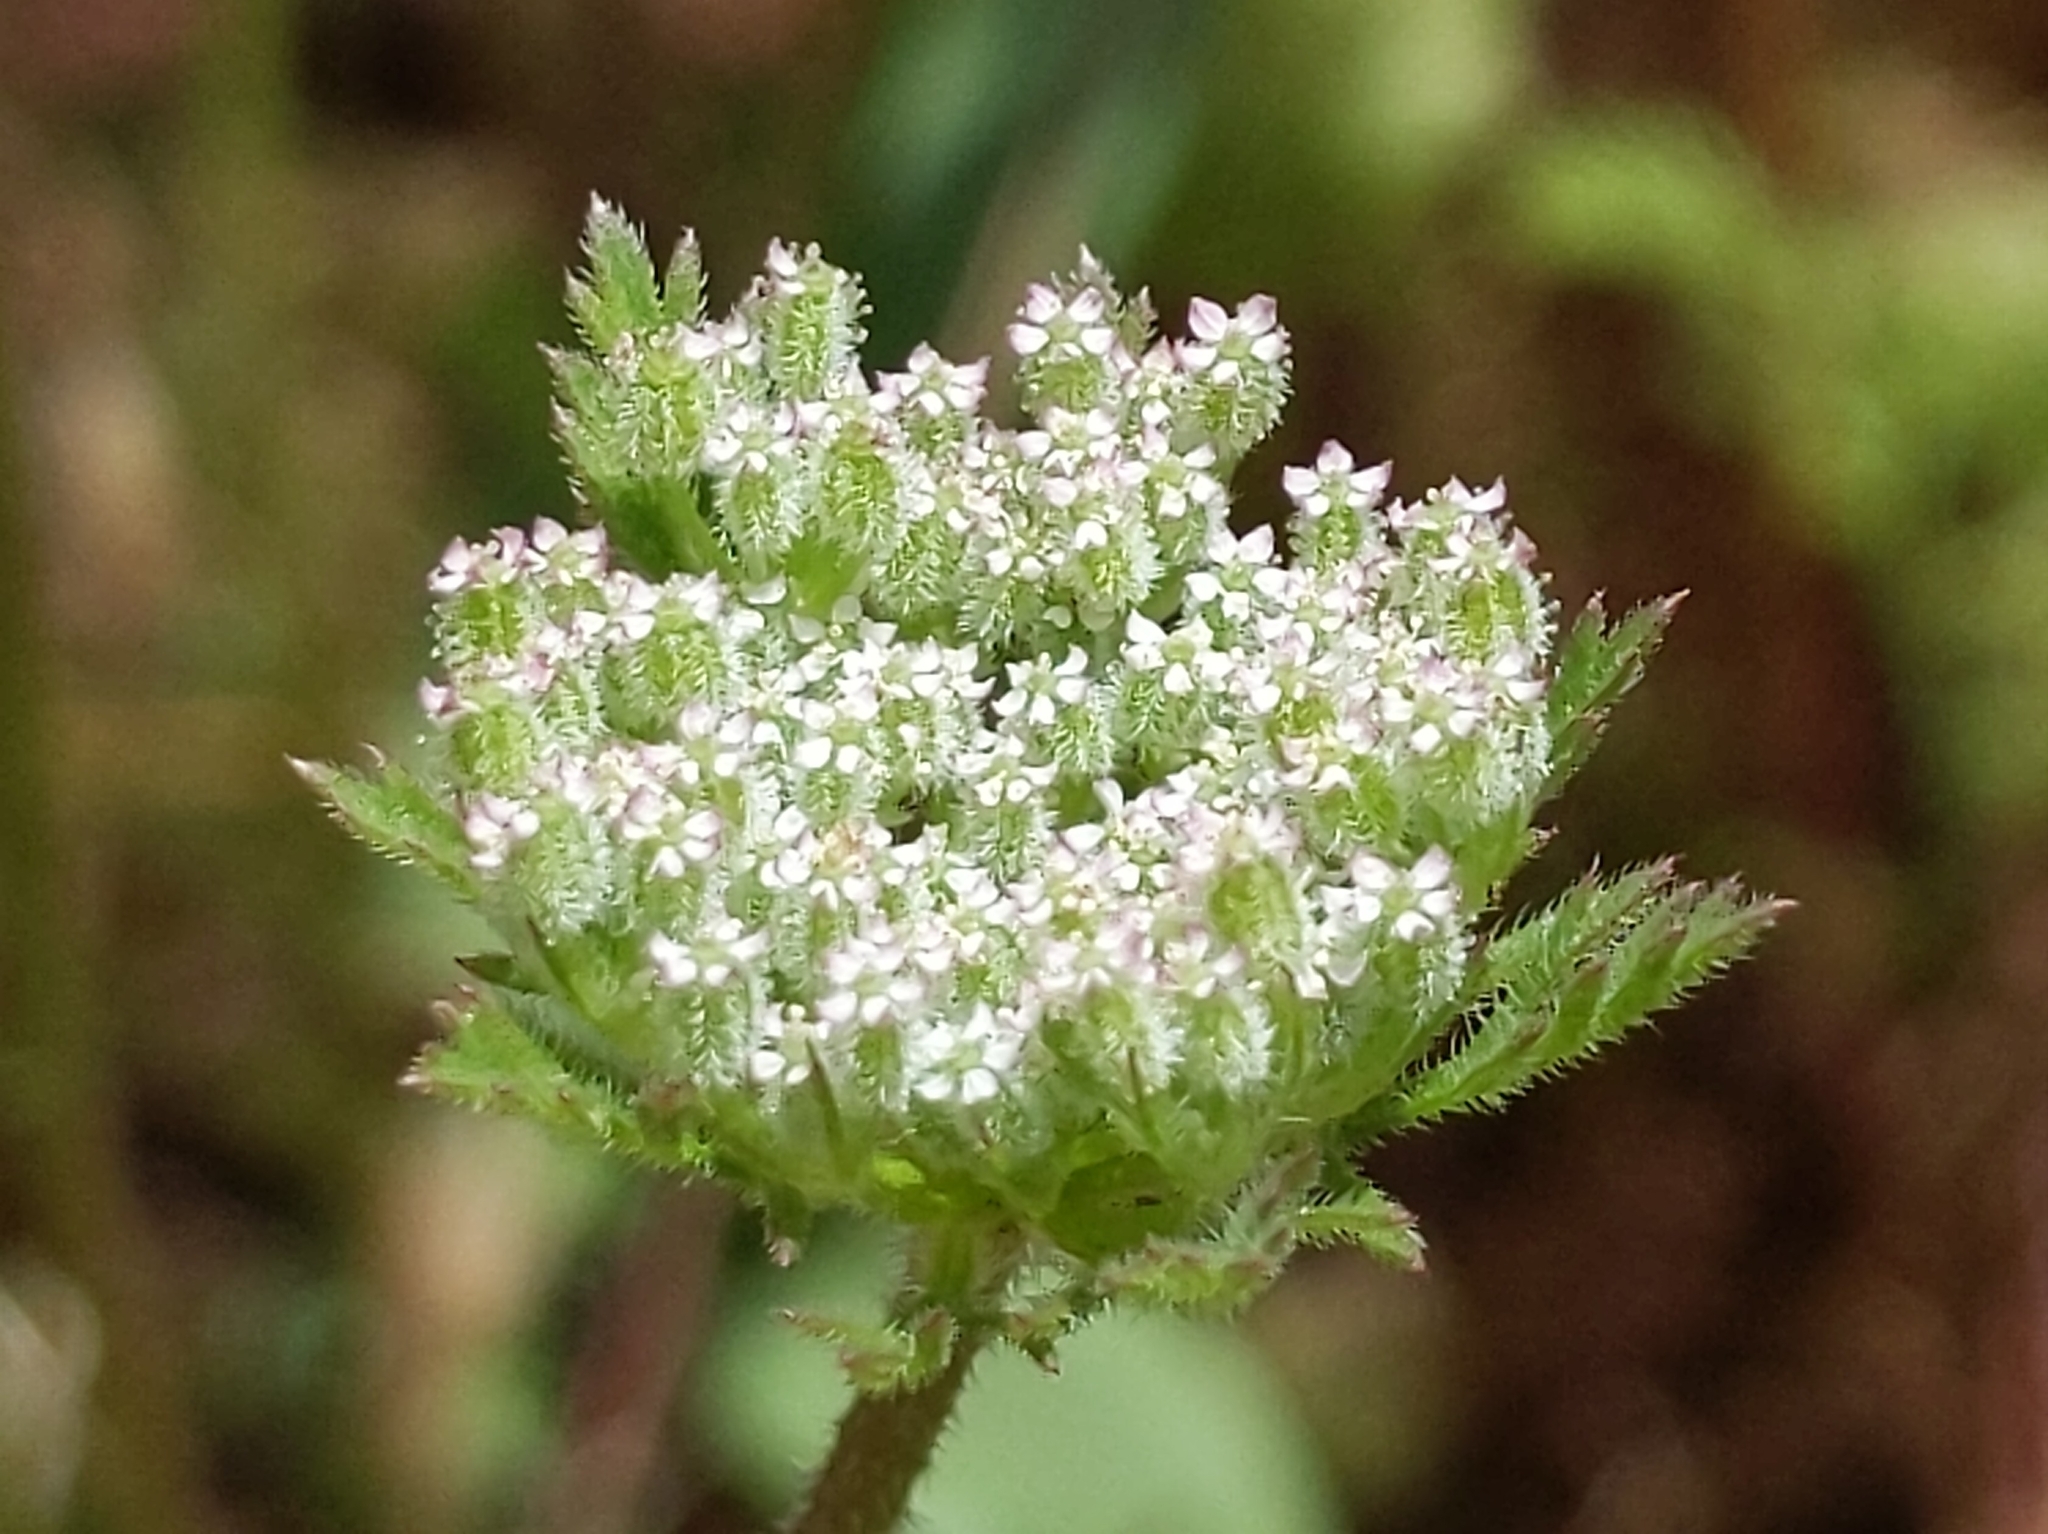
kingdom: Plantae
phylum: Tracheophyta
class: Magnoliopsida
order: Apiales
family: Apiaceae
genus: Daucus
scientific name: Daucus pusillus
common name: Southwest wild carrot
